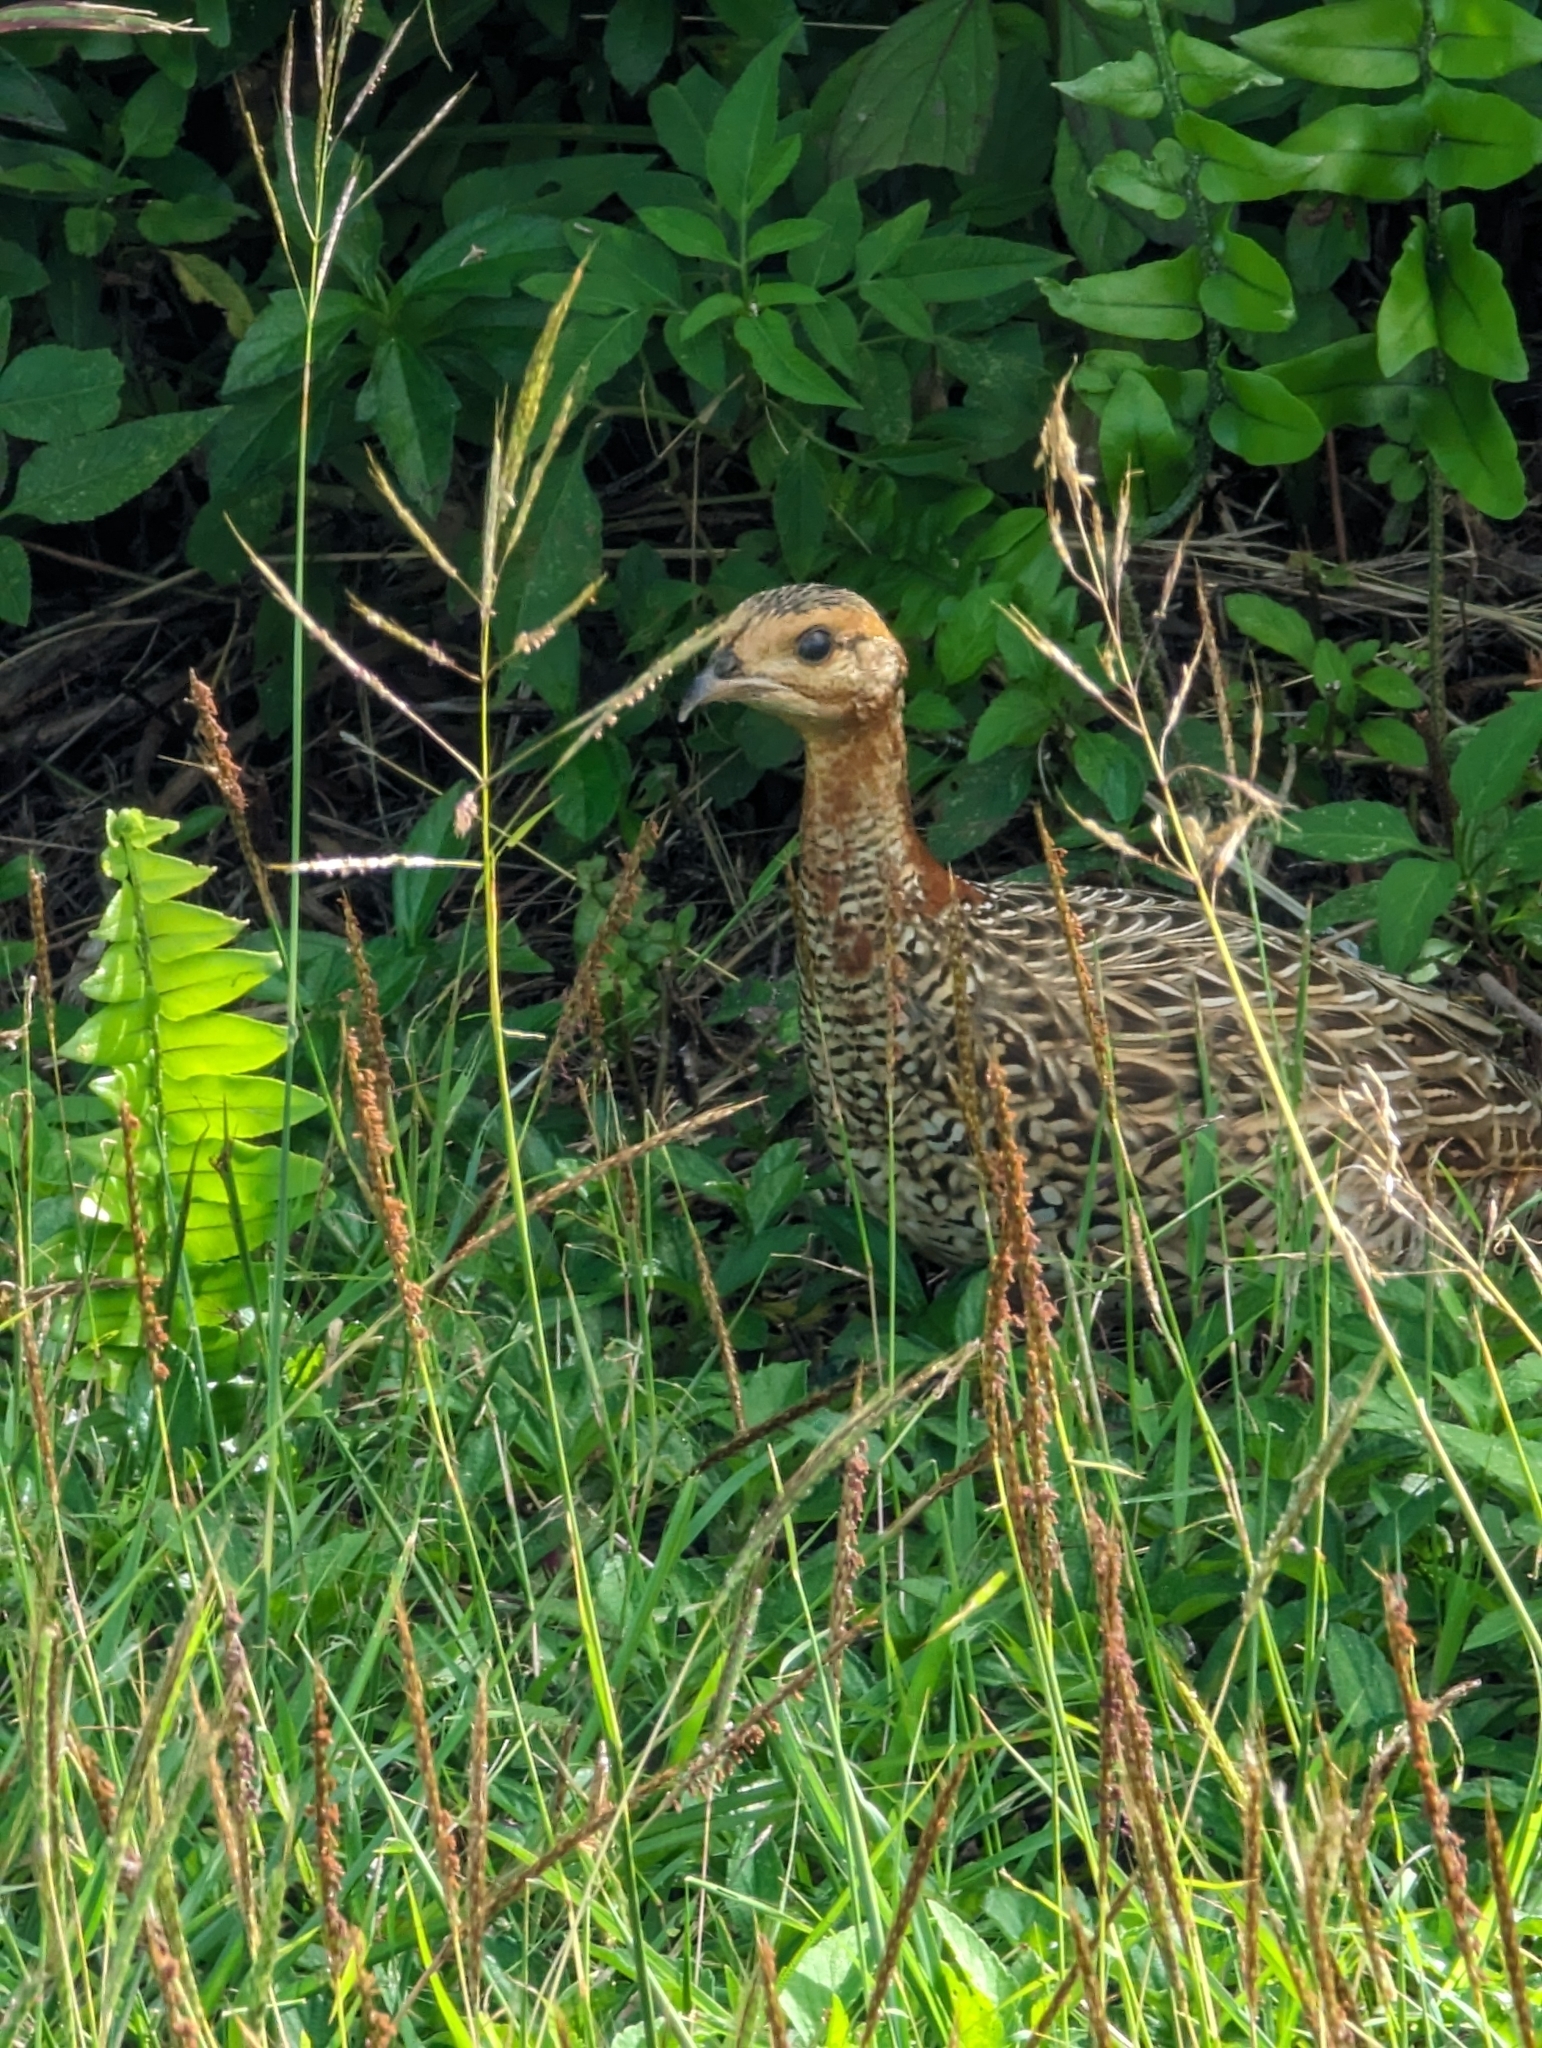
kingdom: Animalia
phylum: Chordata
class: Aves
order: Galliformes
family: Phasianidae
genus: Francolinus
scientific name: Francolinus francolinus
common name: Black francolin
